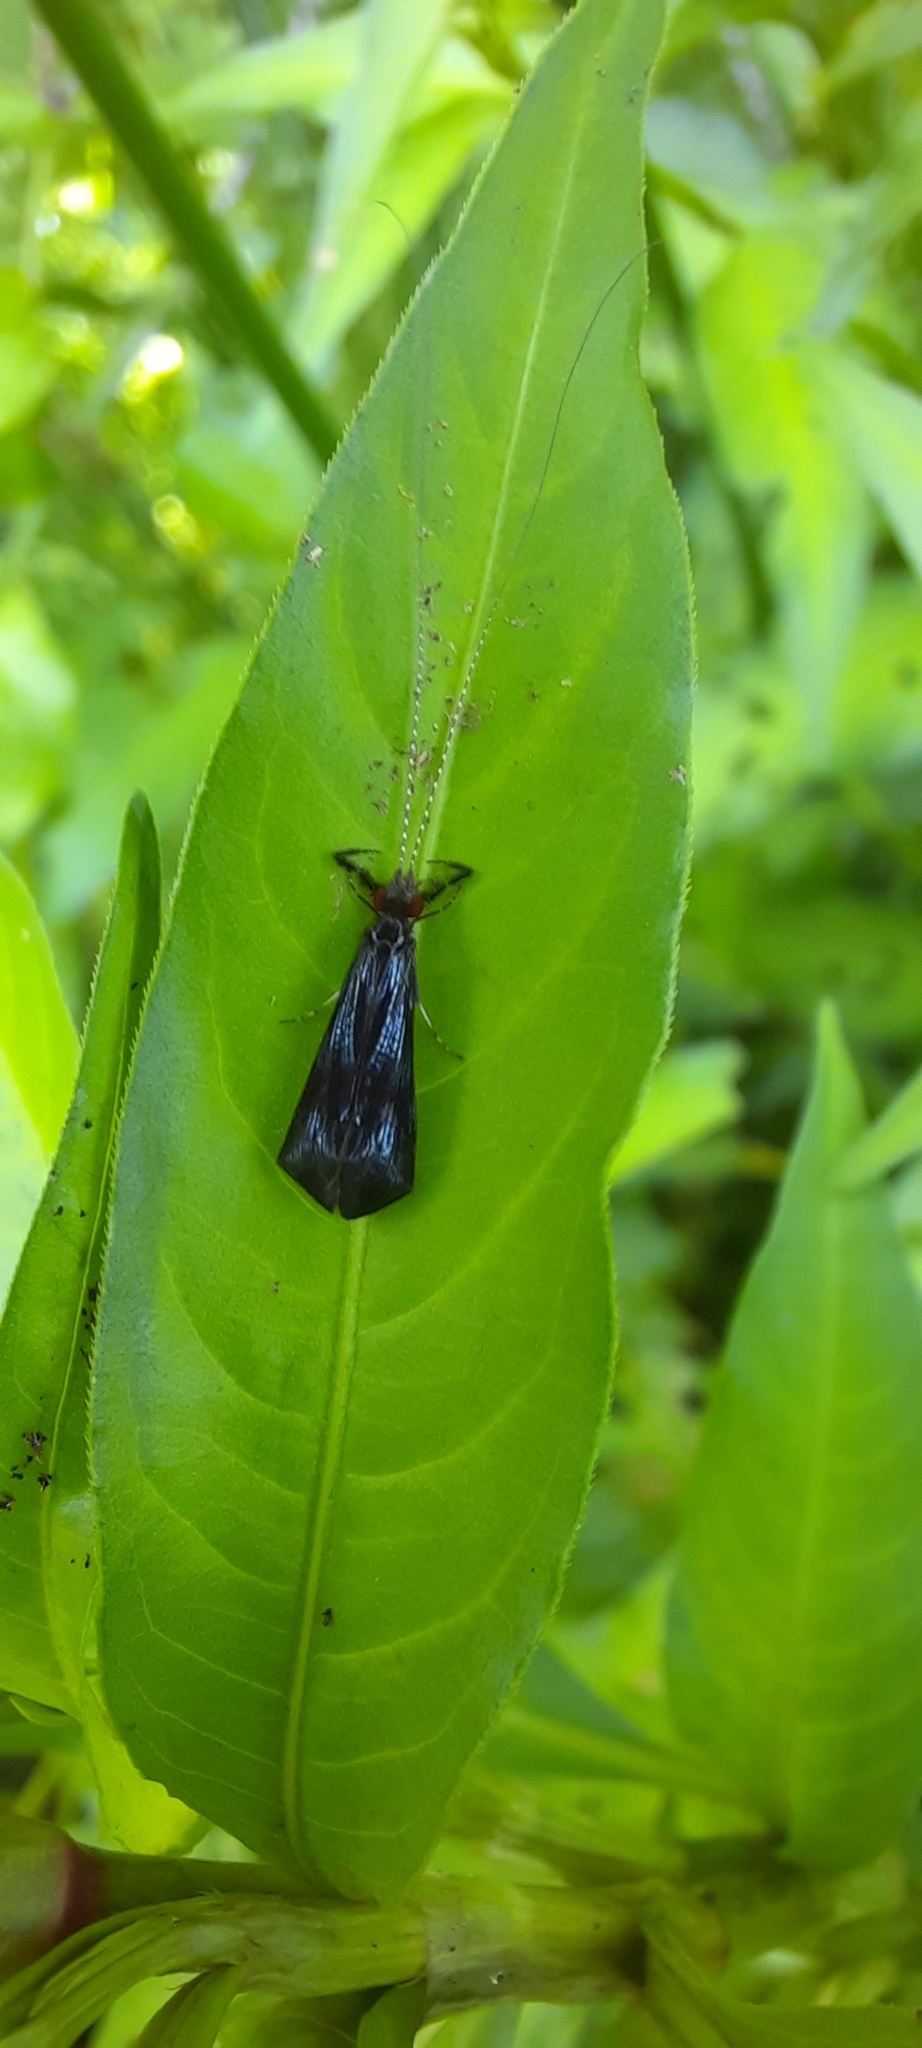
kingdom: Animalia
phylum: Arthropoda
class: Insecta
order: Trichoptera
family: Leptoceridae
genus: Mystacides
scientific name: Mystacides azureus
